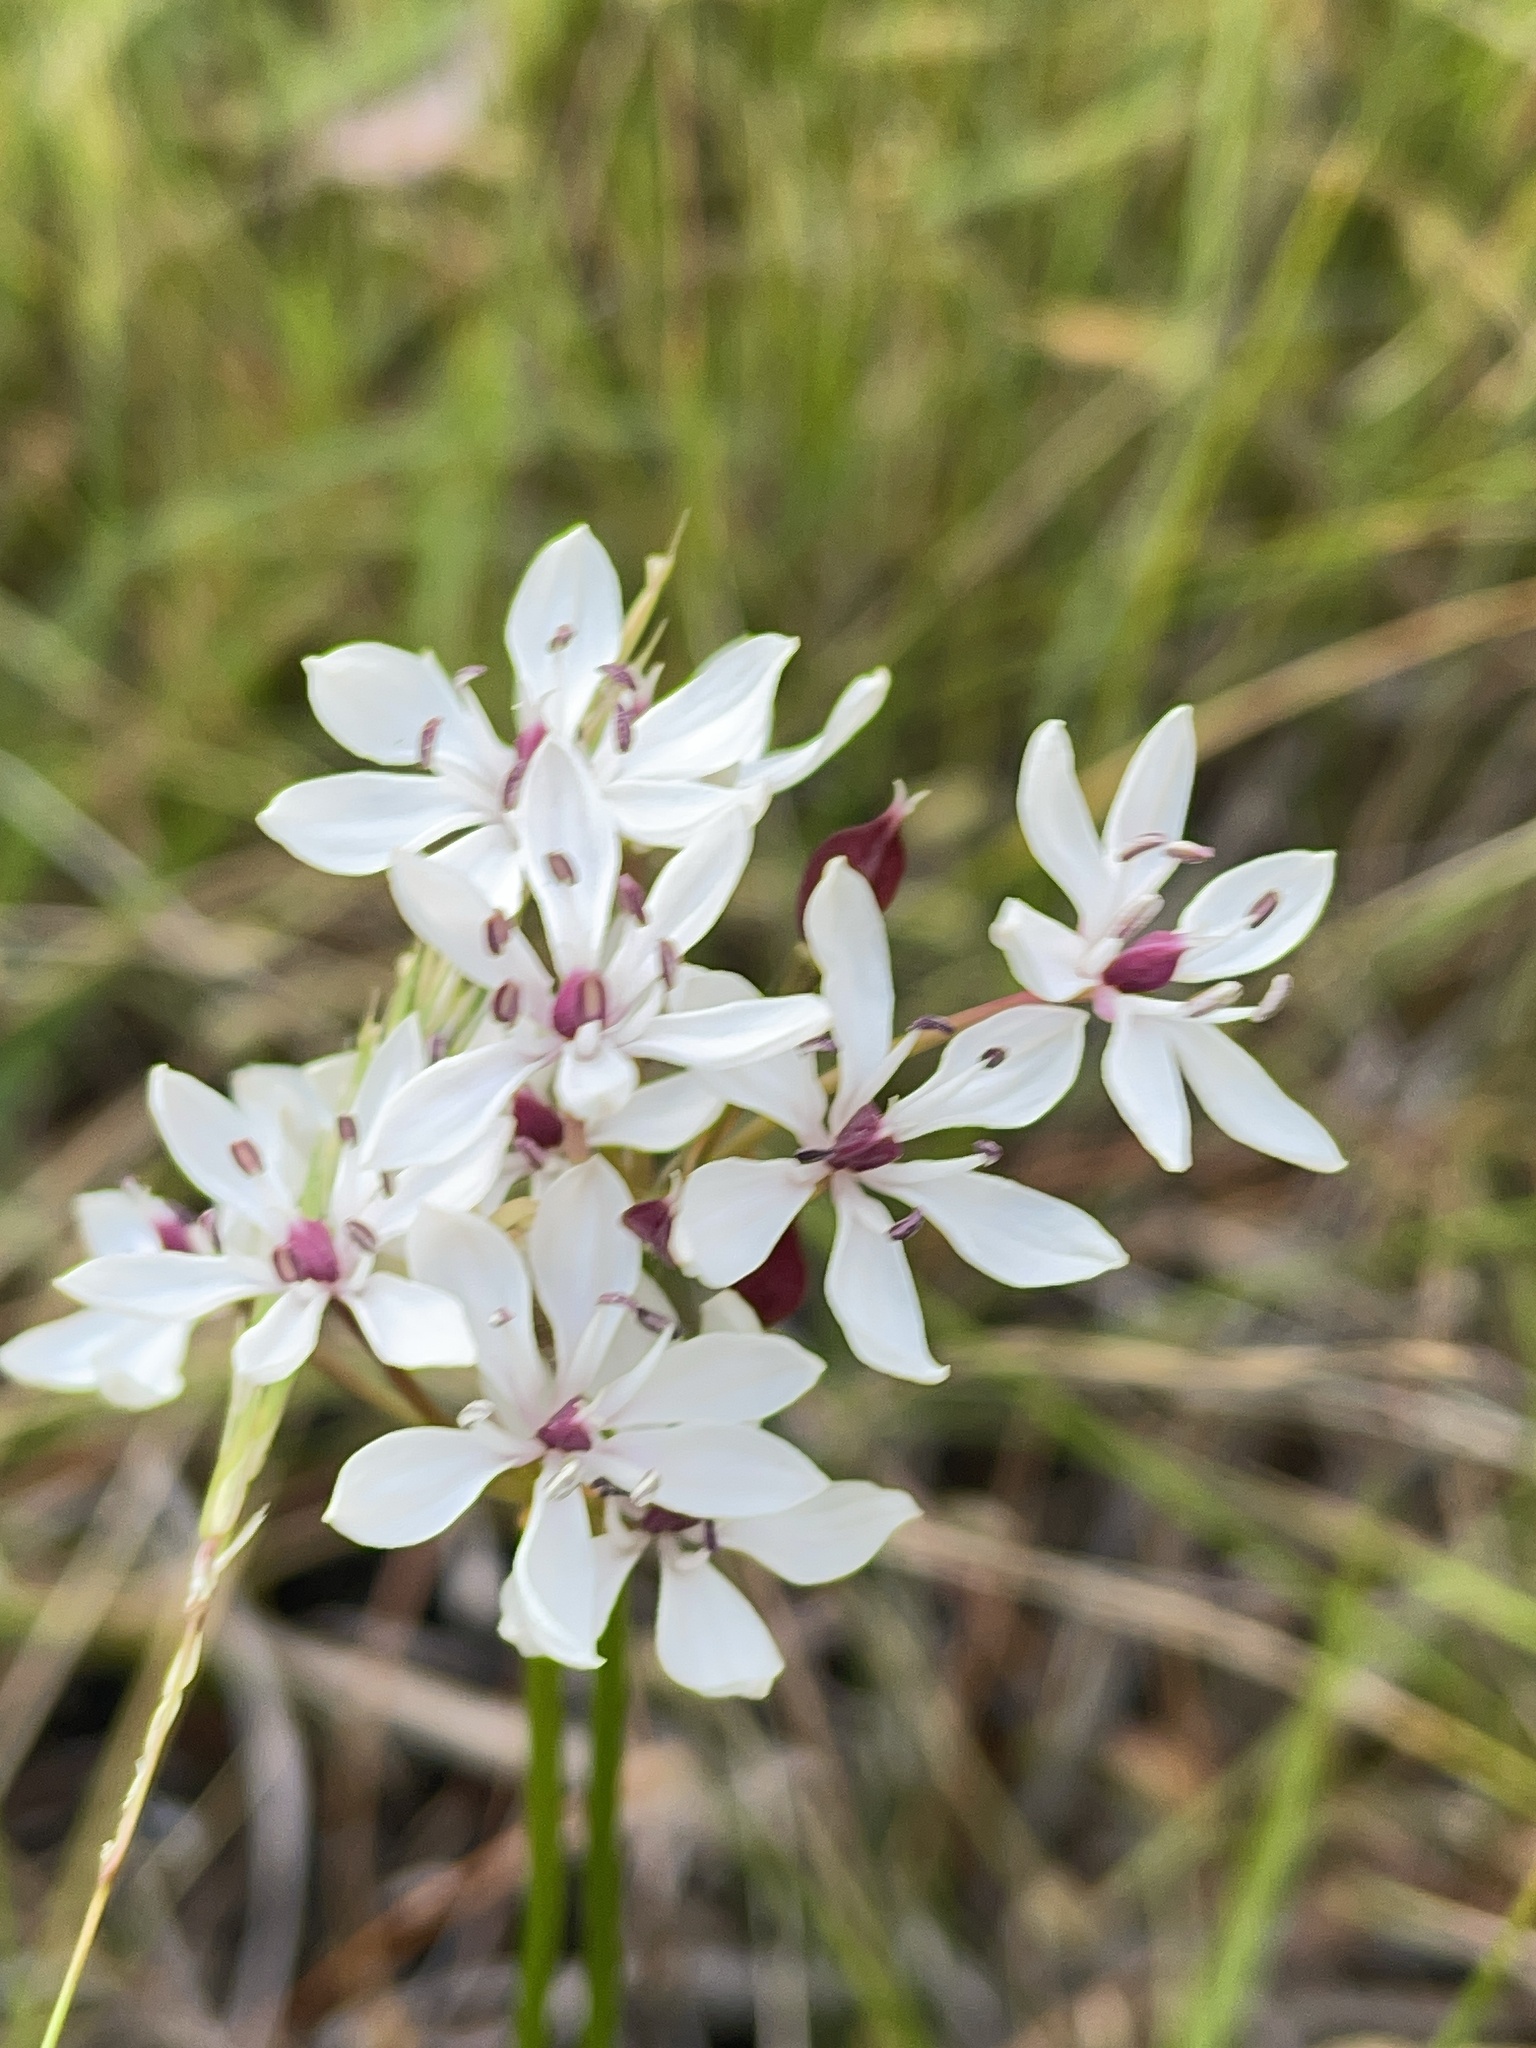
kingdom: Plantae
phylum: Tracheophyta
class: Liliopsida
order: Liliales
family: Colchicaceae
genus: Burchardia
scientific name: Burchardia umbellata
